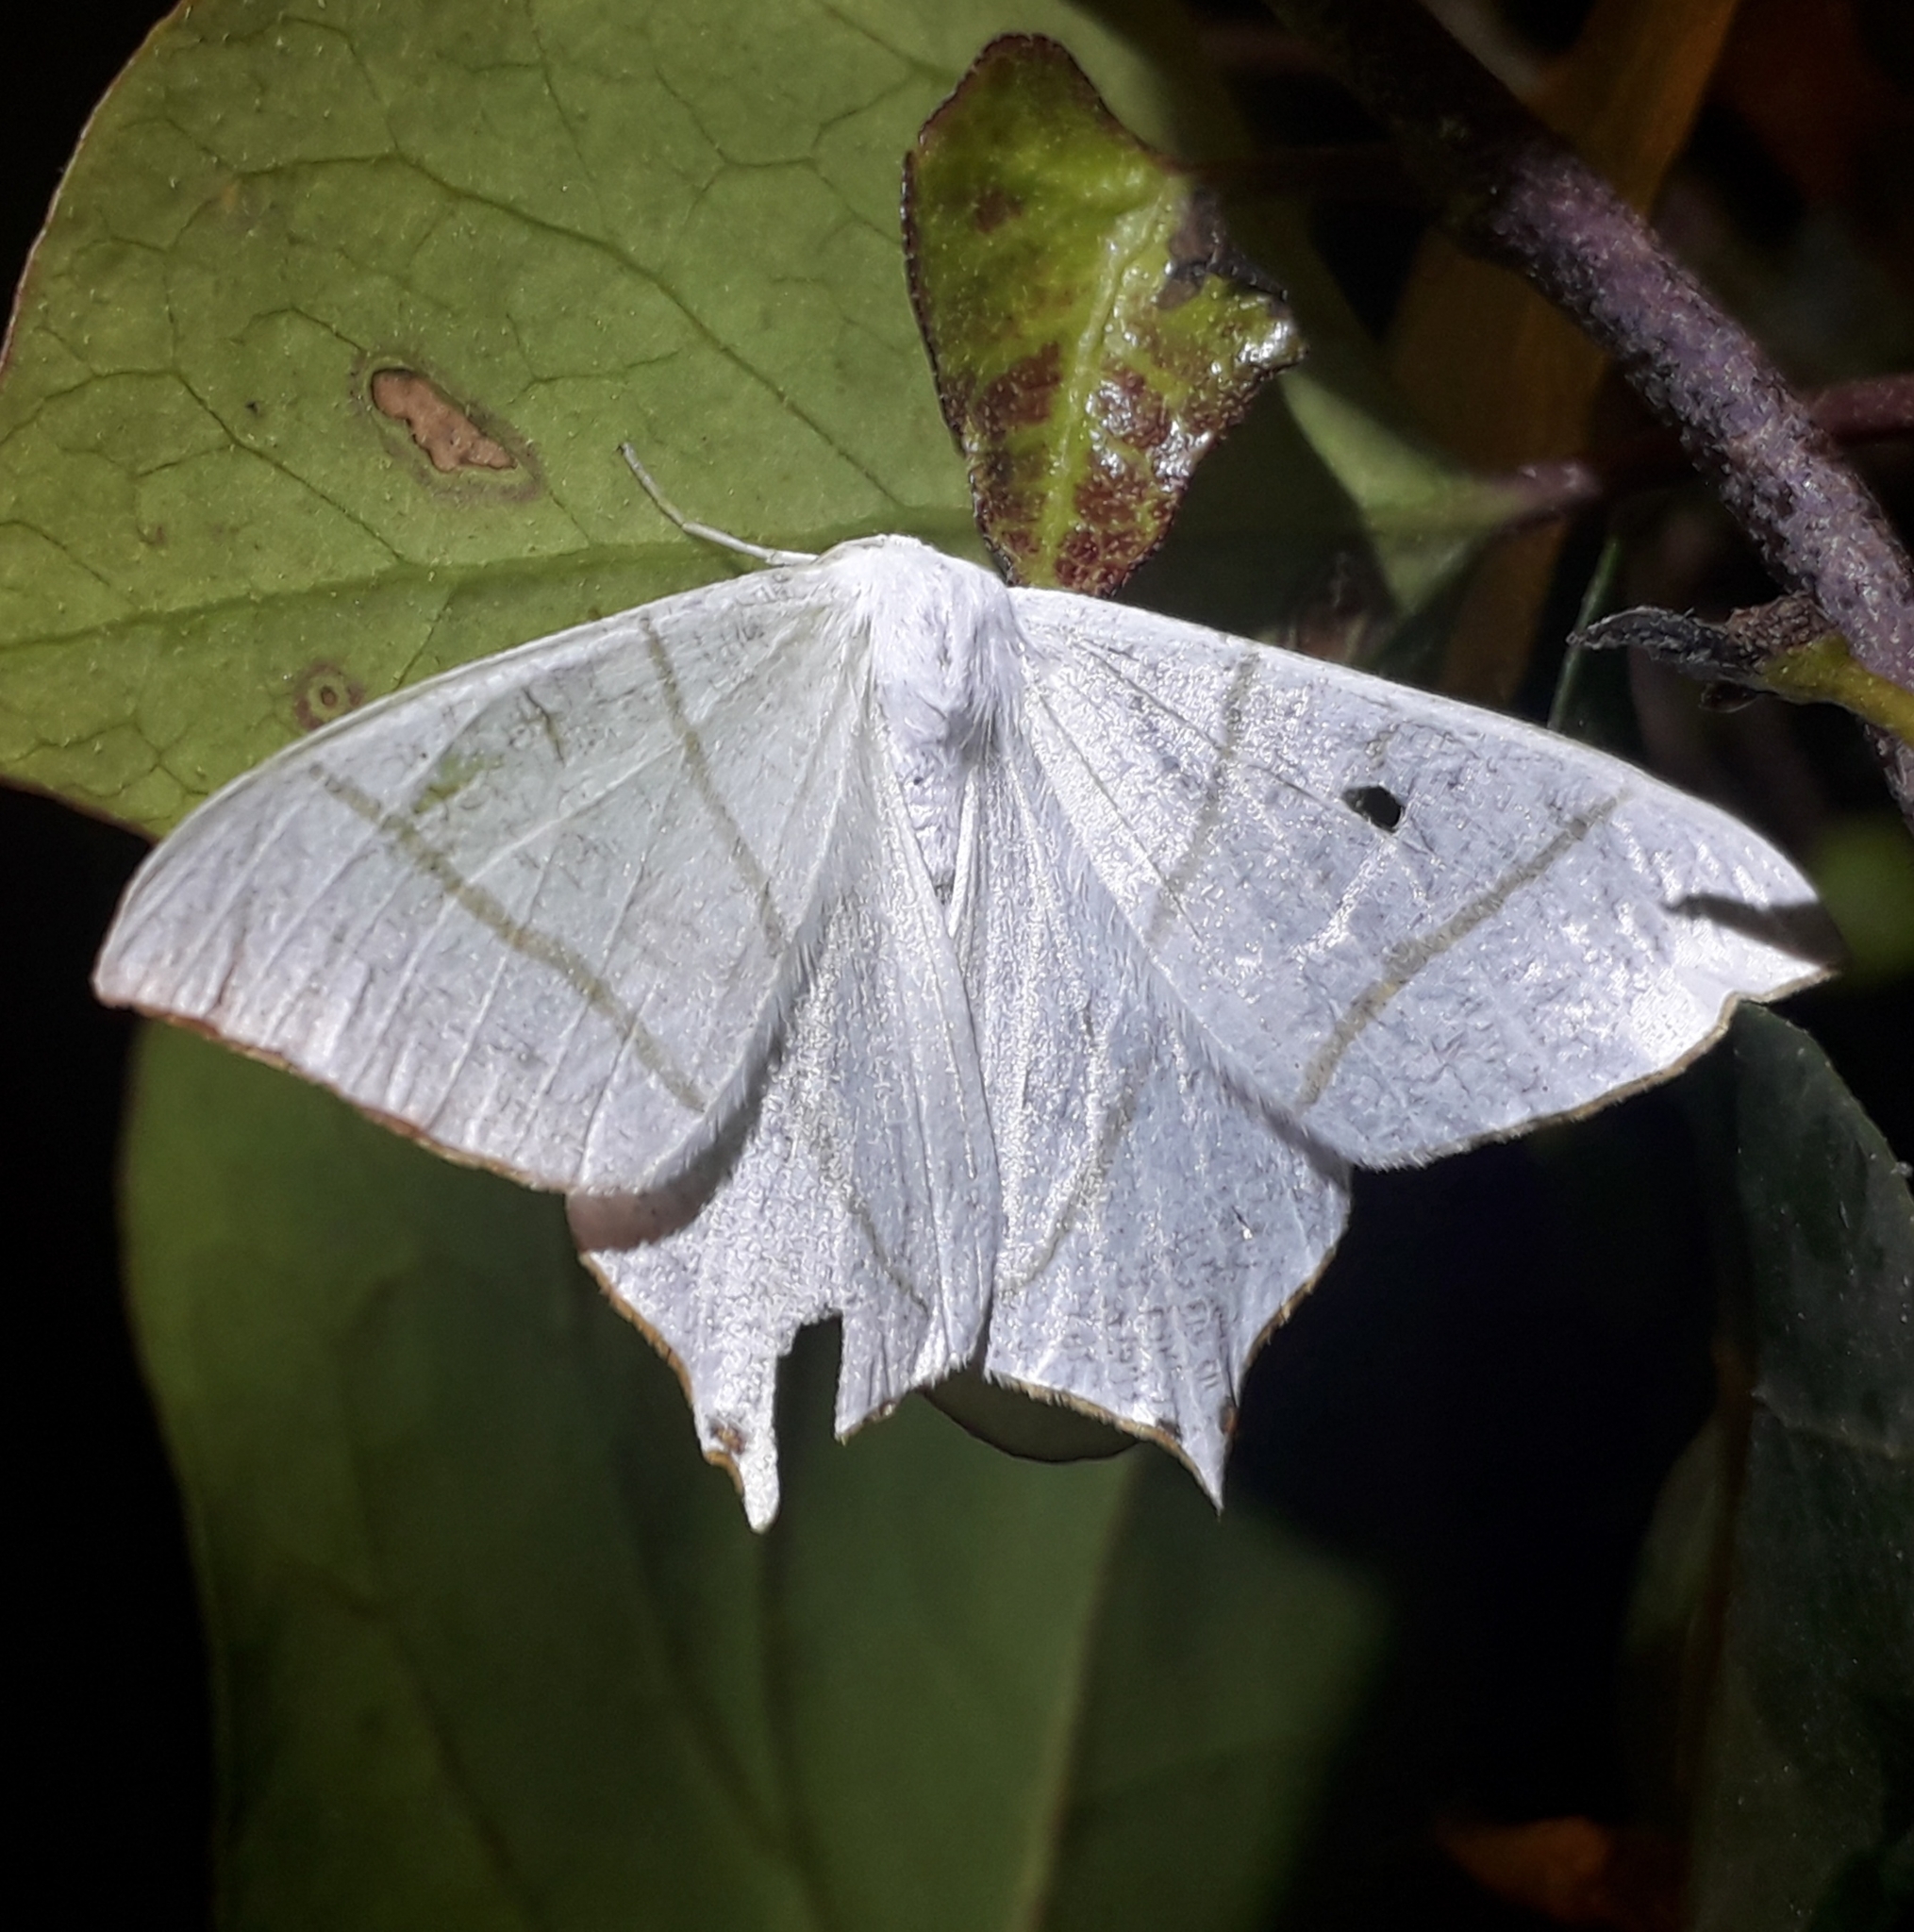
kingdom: Animalia
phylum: Arthropoda
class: Insecta
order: Lepidoptera
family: Geometridae
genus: Ourapteryx
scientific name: Ourapteryx persica
